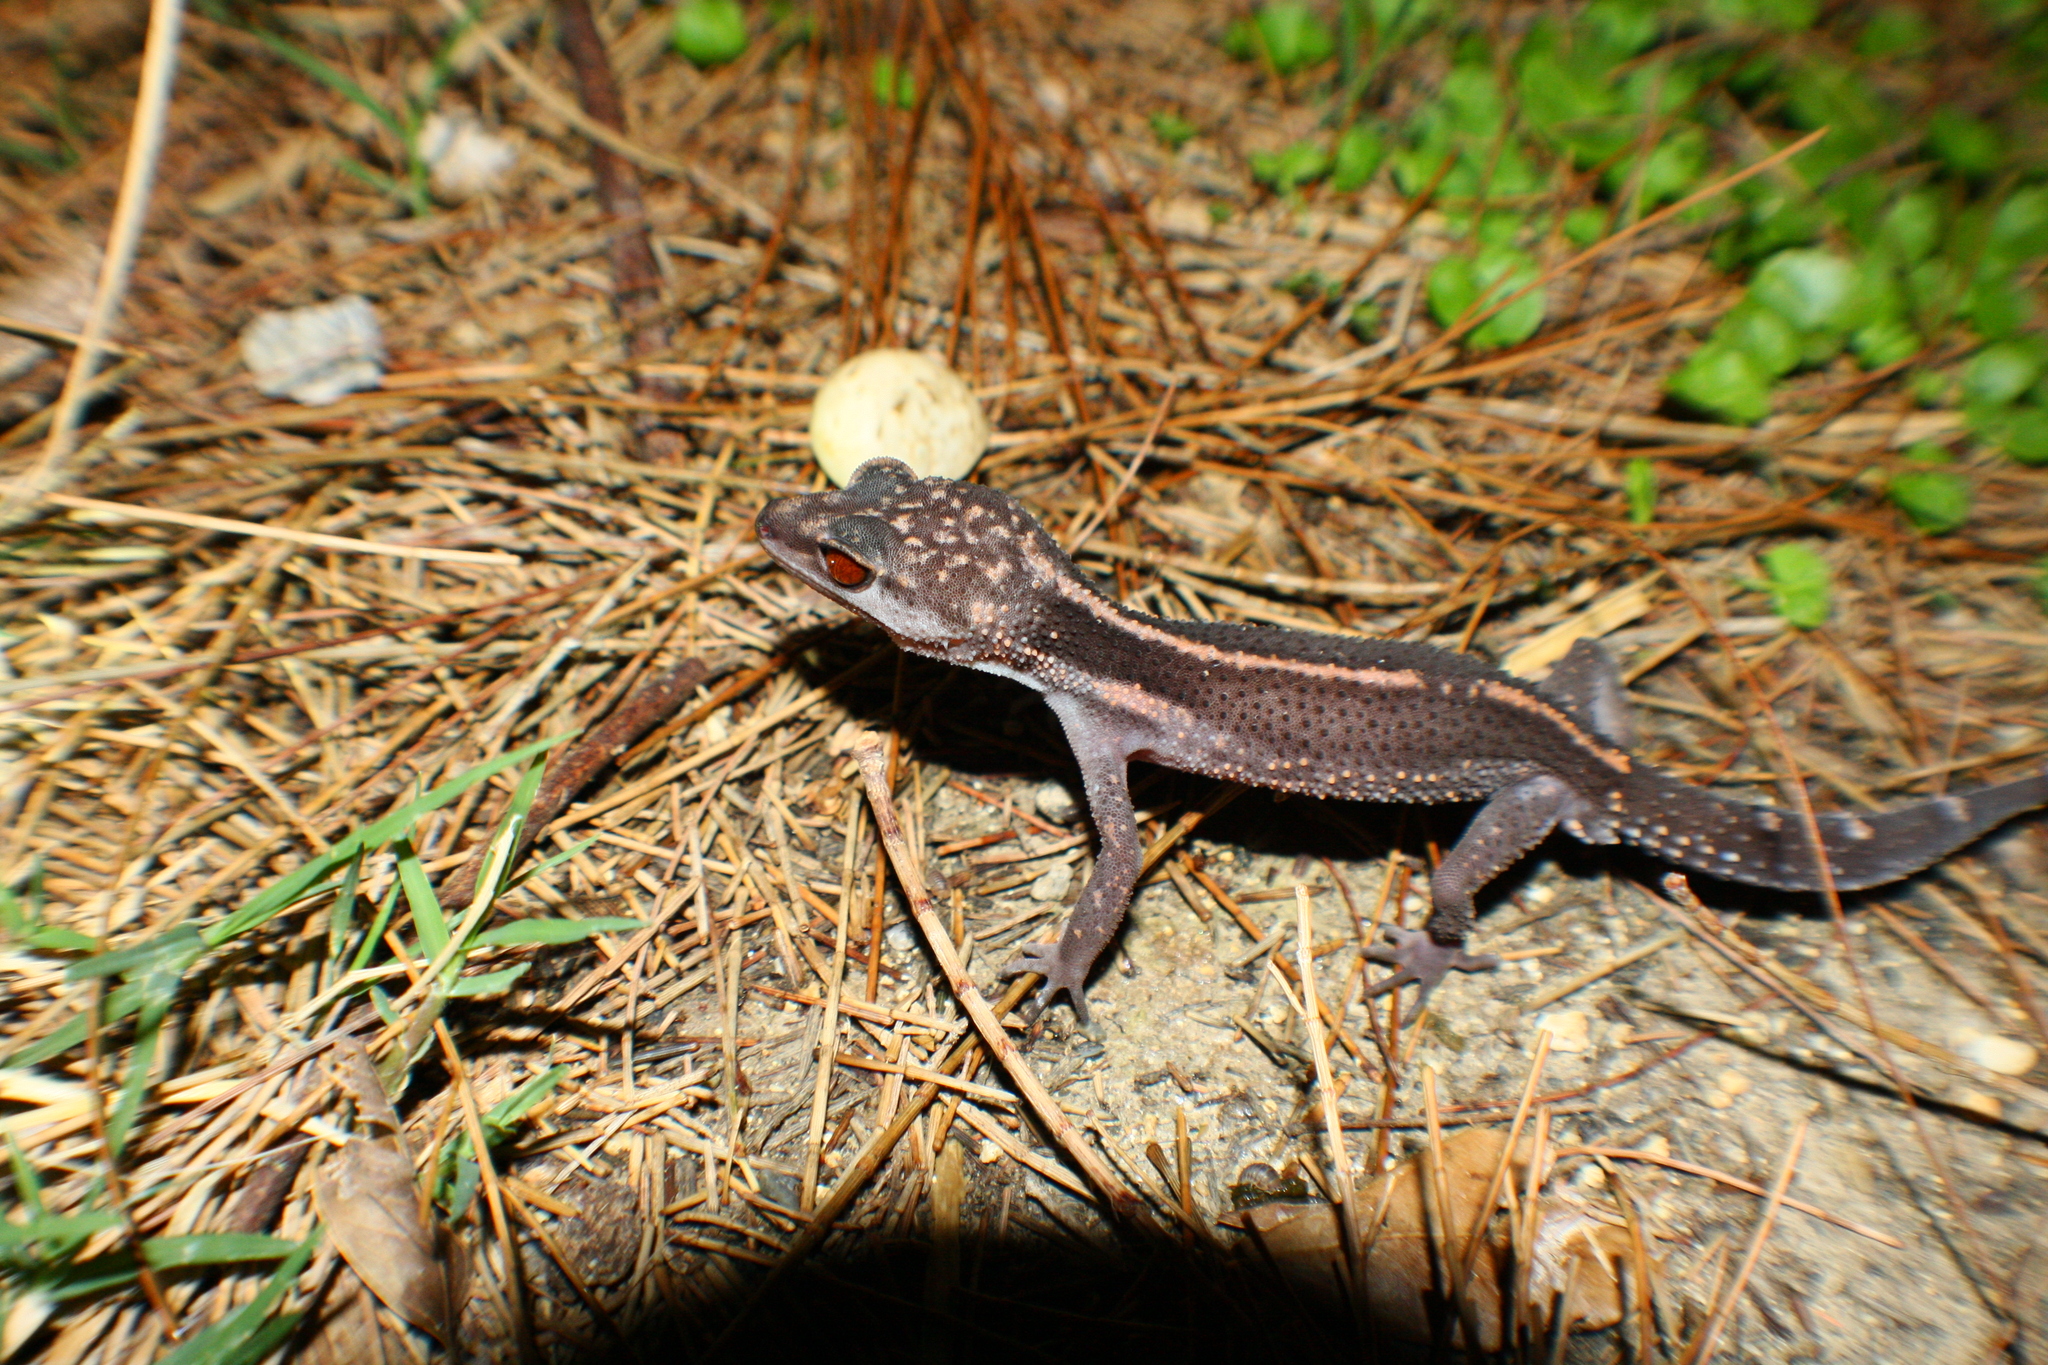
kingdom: Animalia
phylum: Chordata
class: Squamata
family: Eublepharidae
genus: Goniurosaurus
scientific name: Goniurosaurus kuroiwae
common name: Tokashiki gecko
